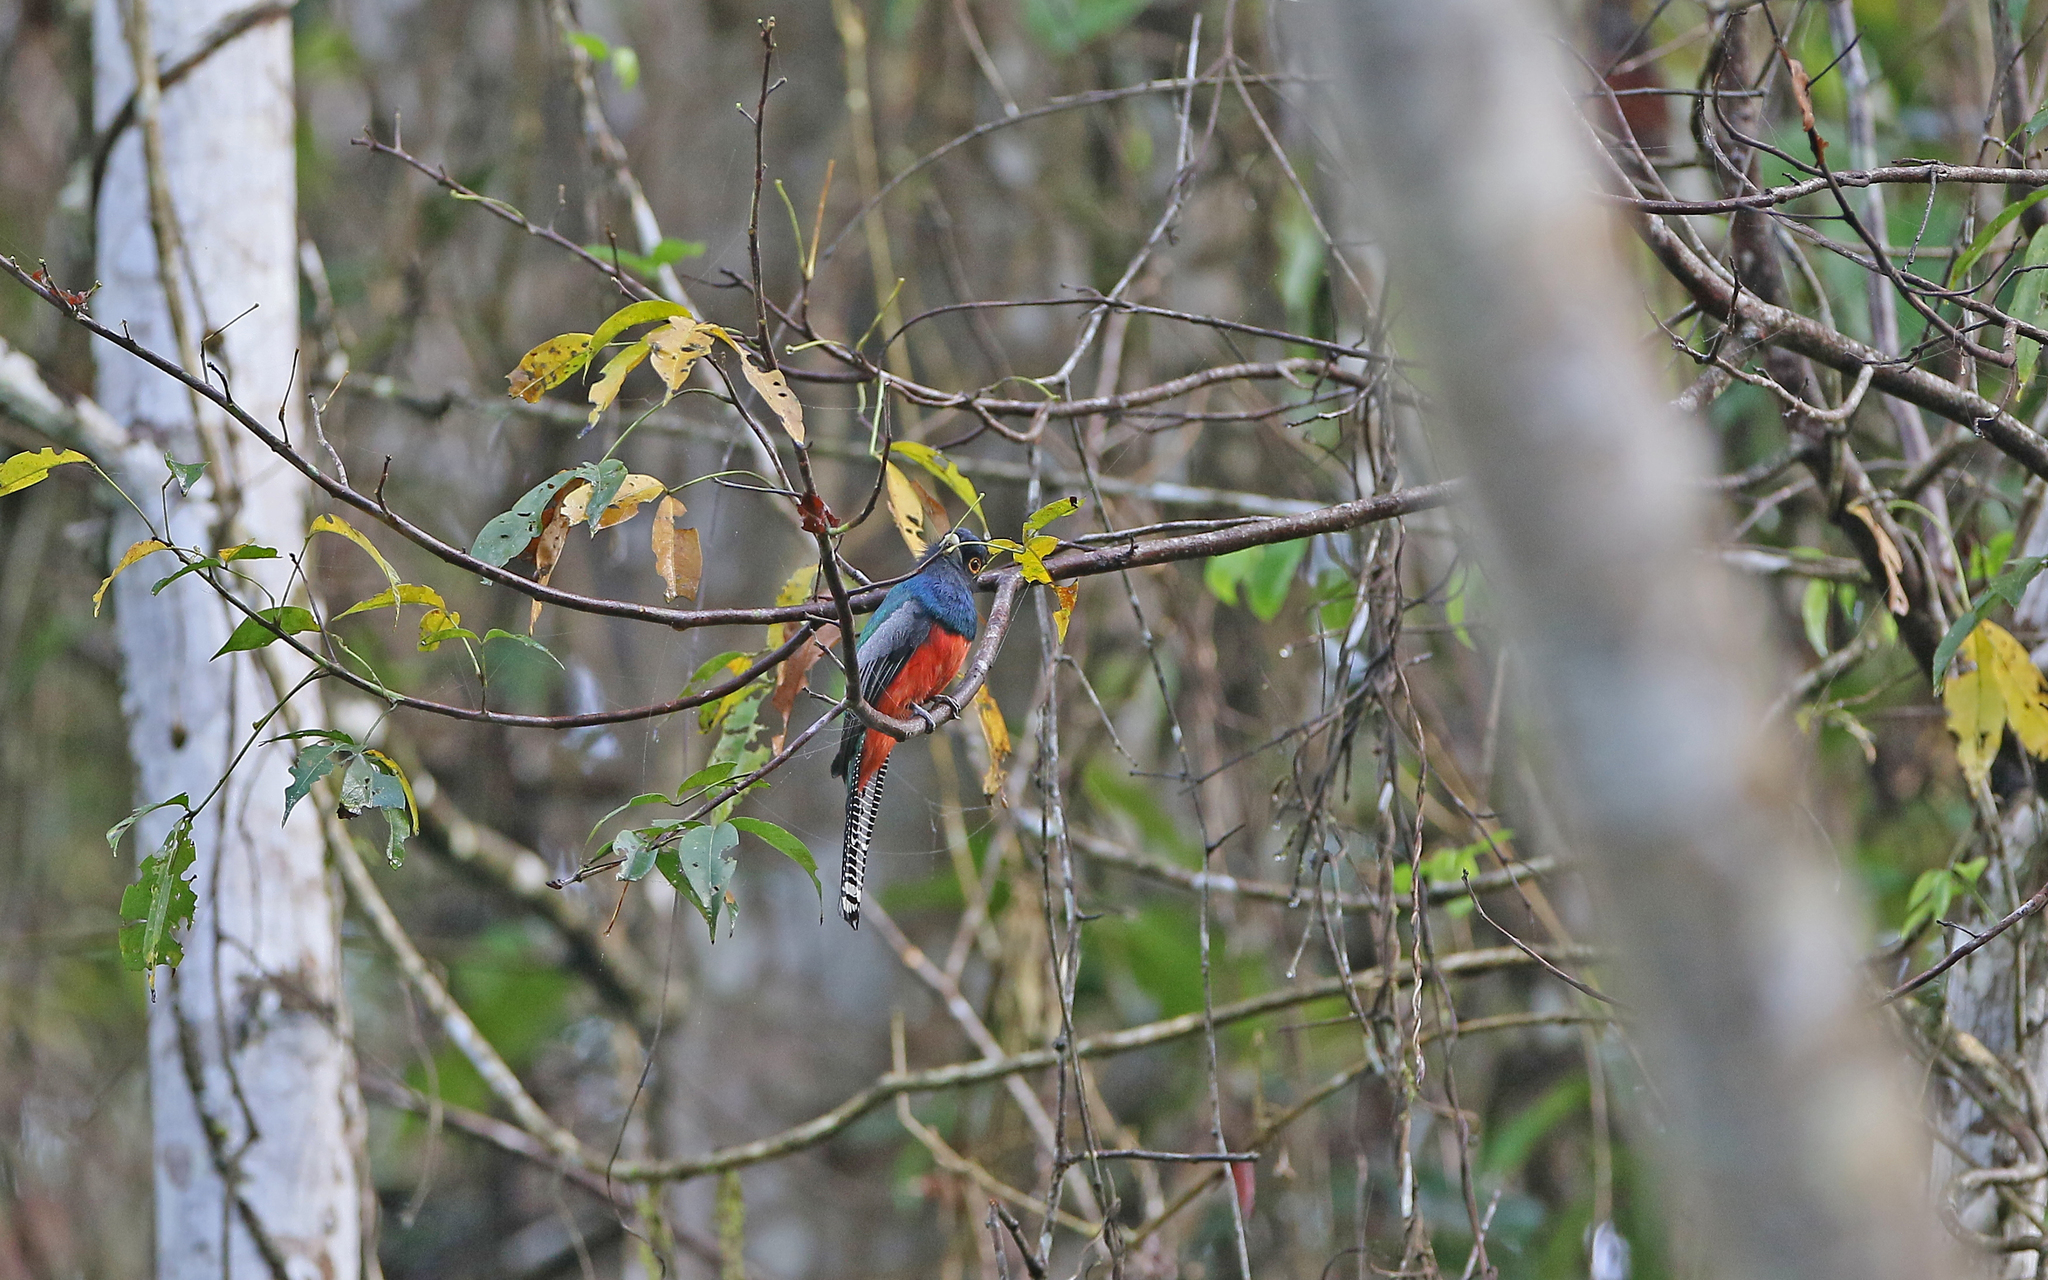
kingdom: Animalia
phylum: Chordata
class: Aves
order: Trogoniformes
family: Trogonidae
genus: Trogon
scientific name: Trogon curucui
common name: Blue-crowned trogon
